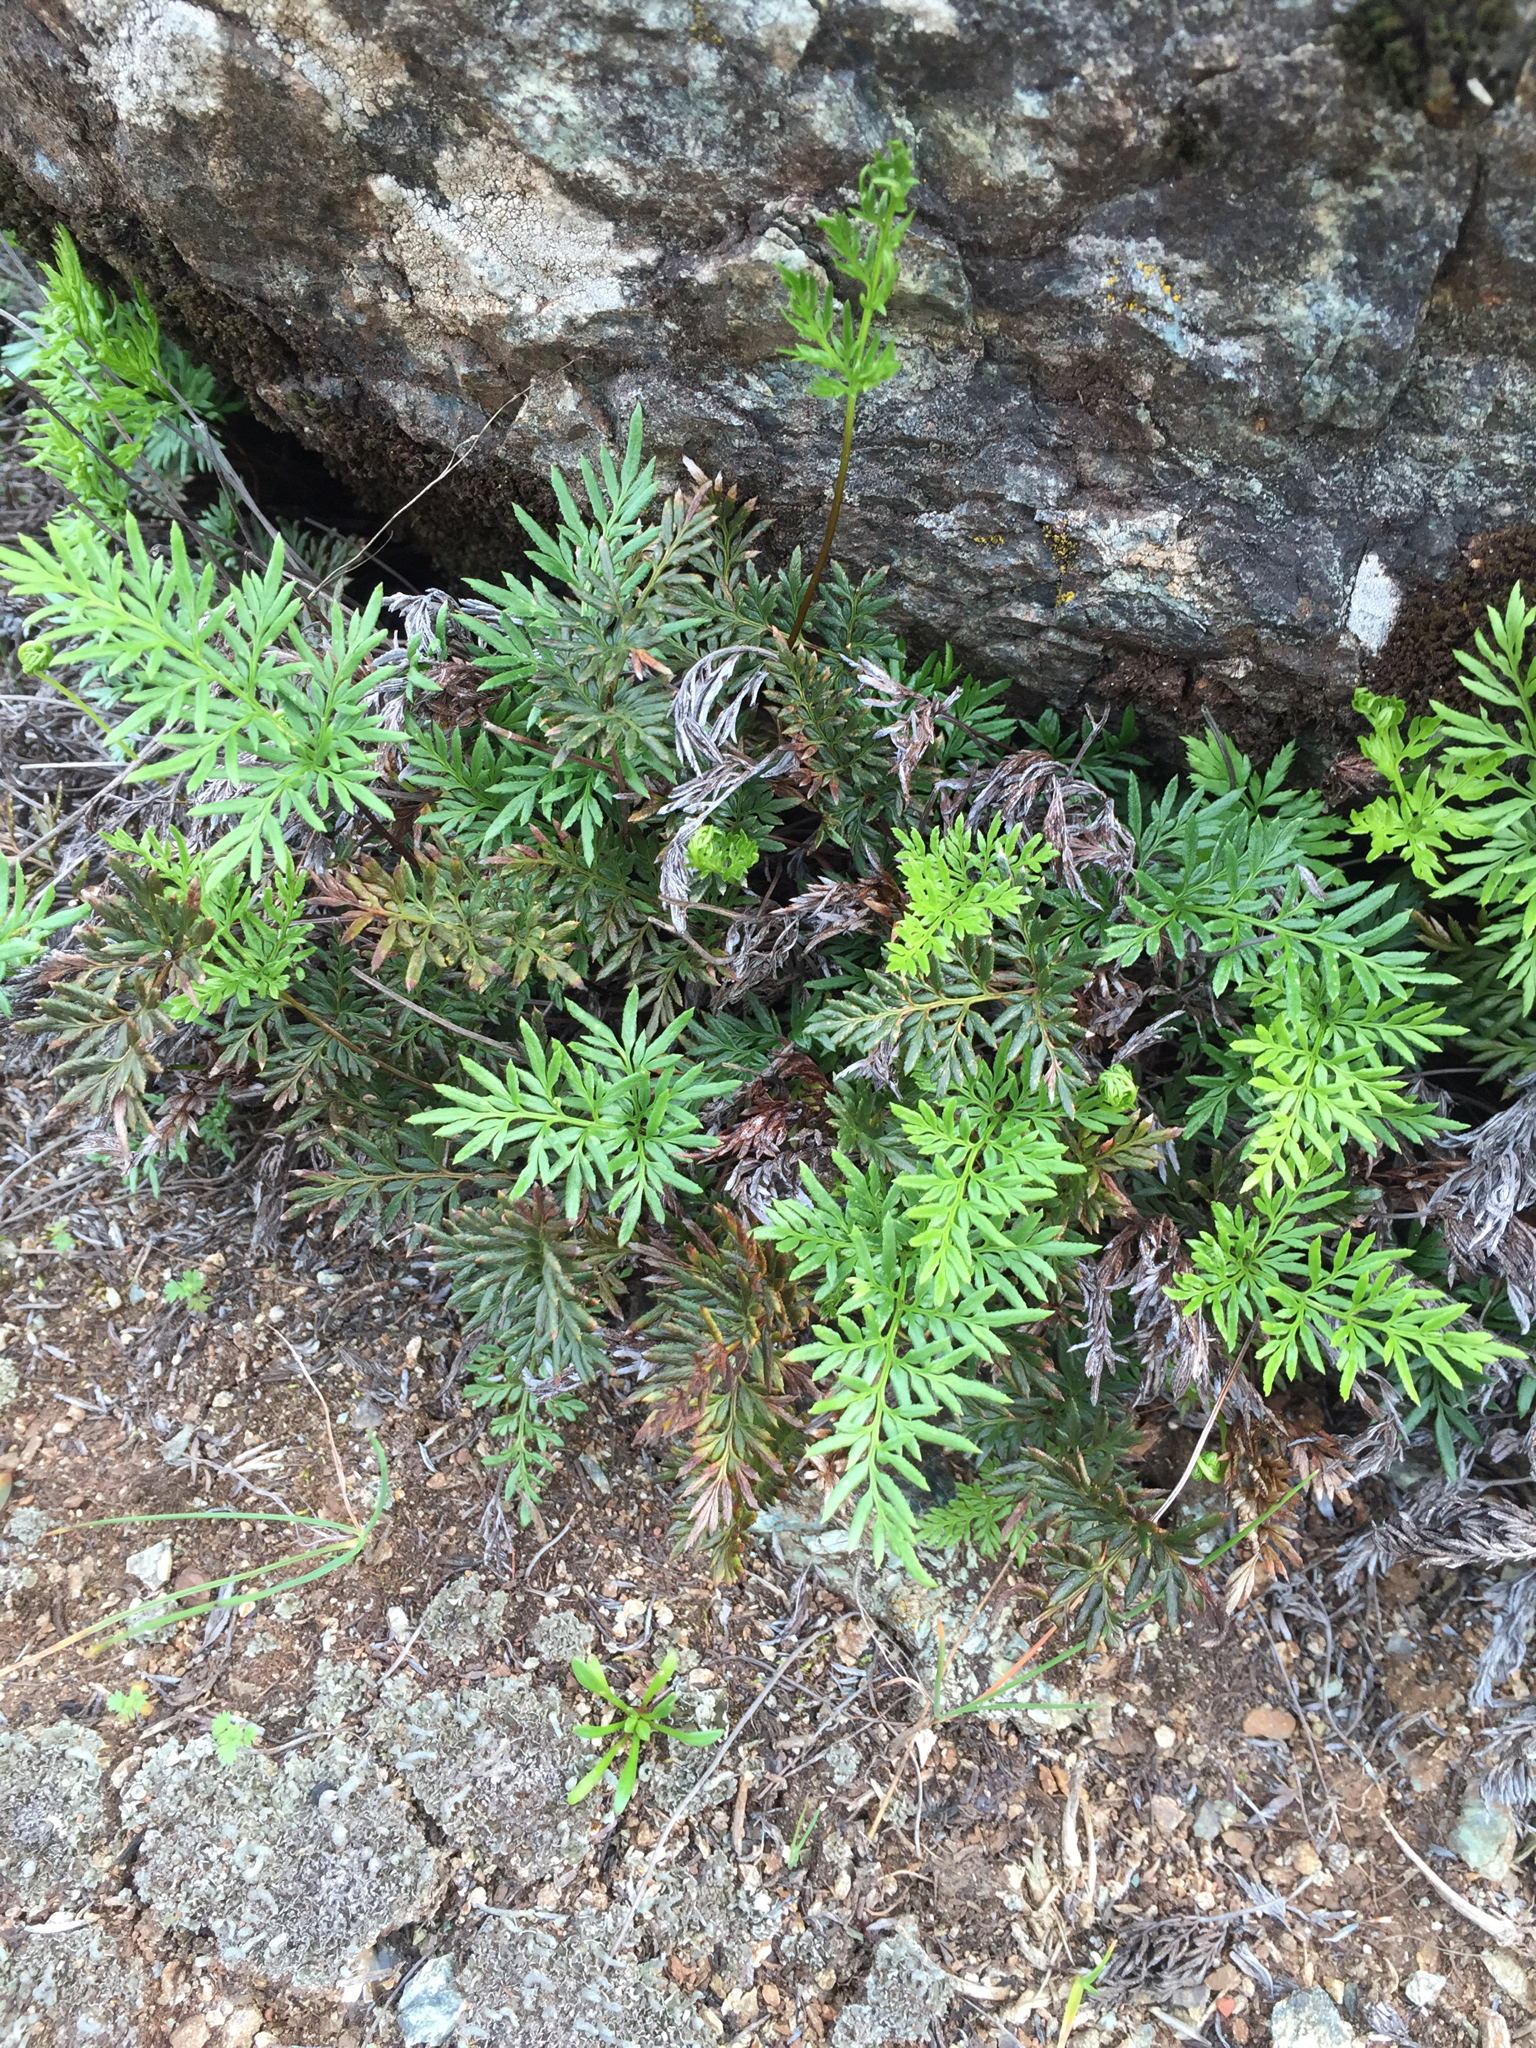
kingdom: Plantae
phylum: Tracheophyta
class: Polypodiopsida
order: Polypodiales
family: Pteridaceae
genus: Aspidotis
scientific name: Aspidotis densa
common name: Indian's dream
